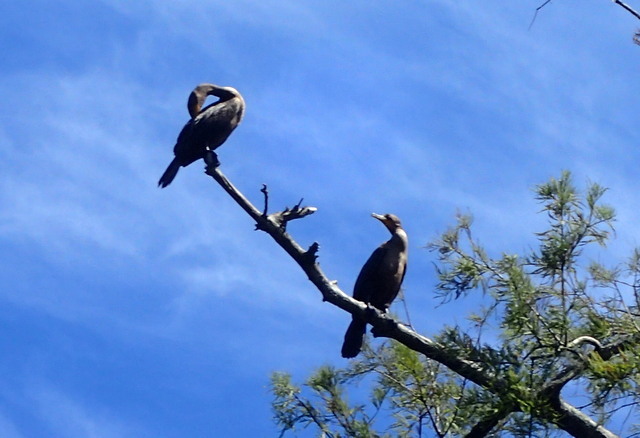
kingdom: Animalia
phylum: Chordata
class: Aves
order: Suliformes
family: Phalacrocoracidae
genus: Phalacrocorax
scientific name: Phalacrocorax auritus
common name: Double-crested cormorant
